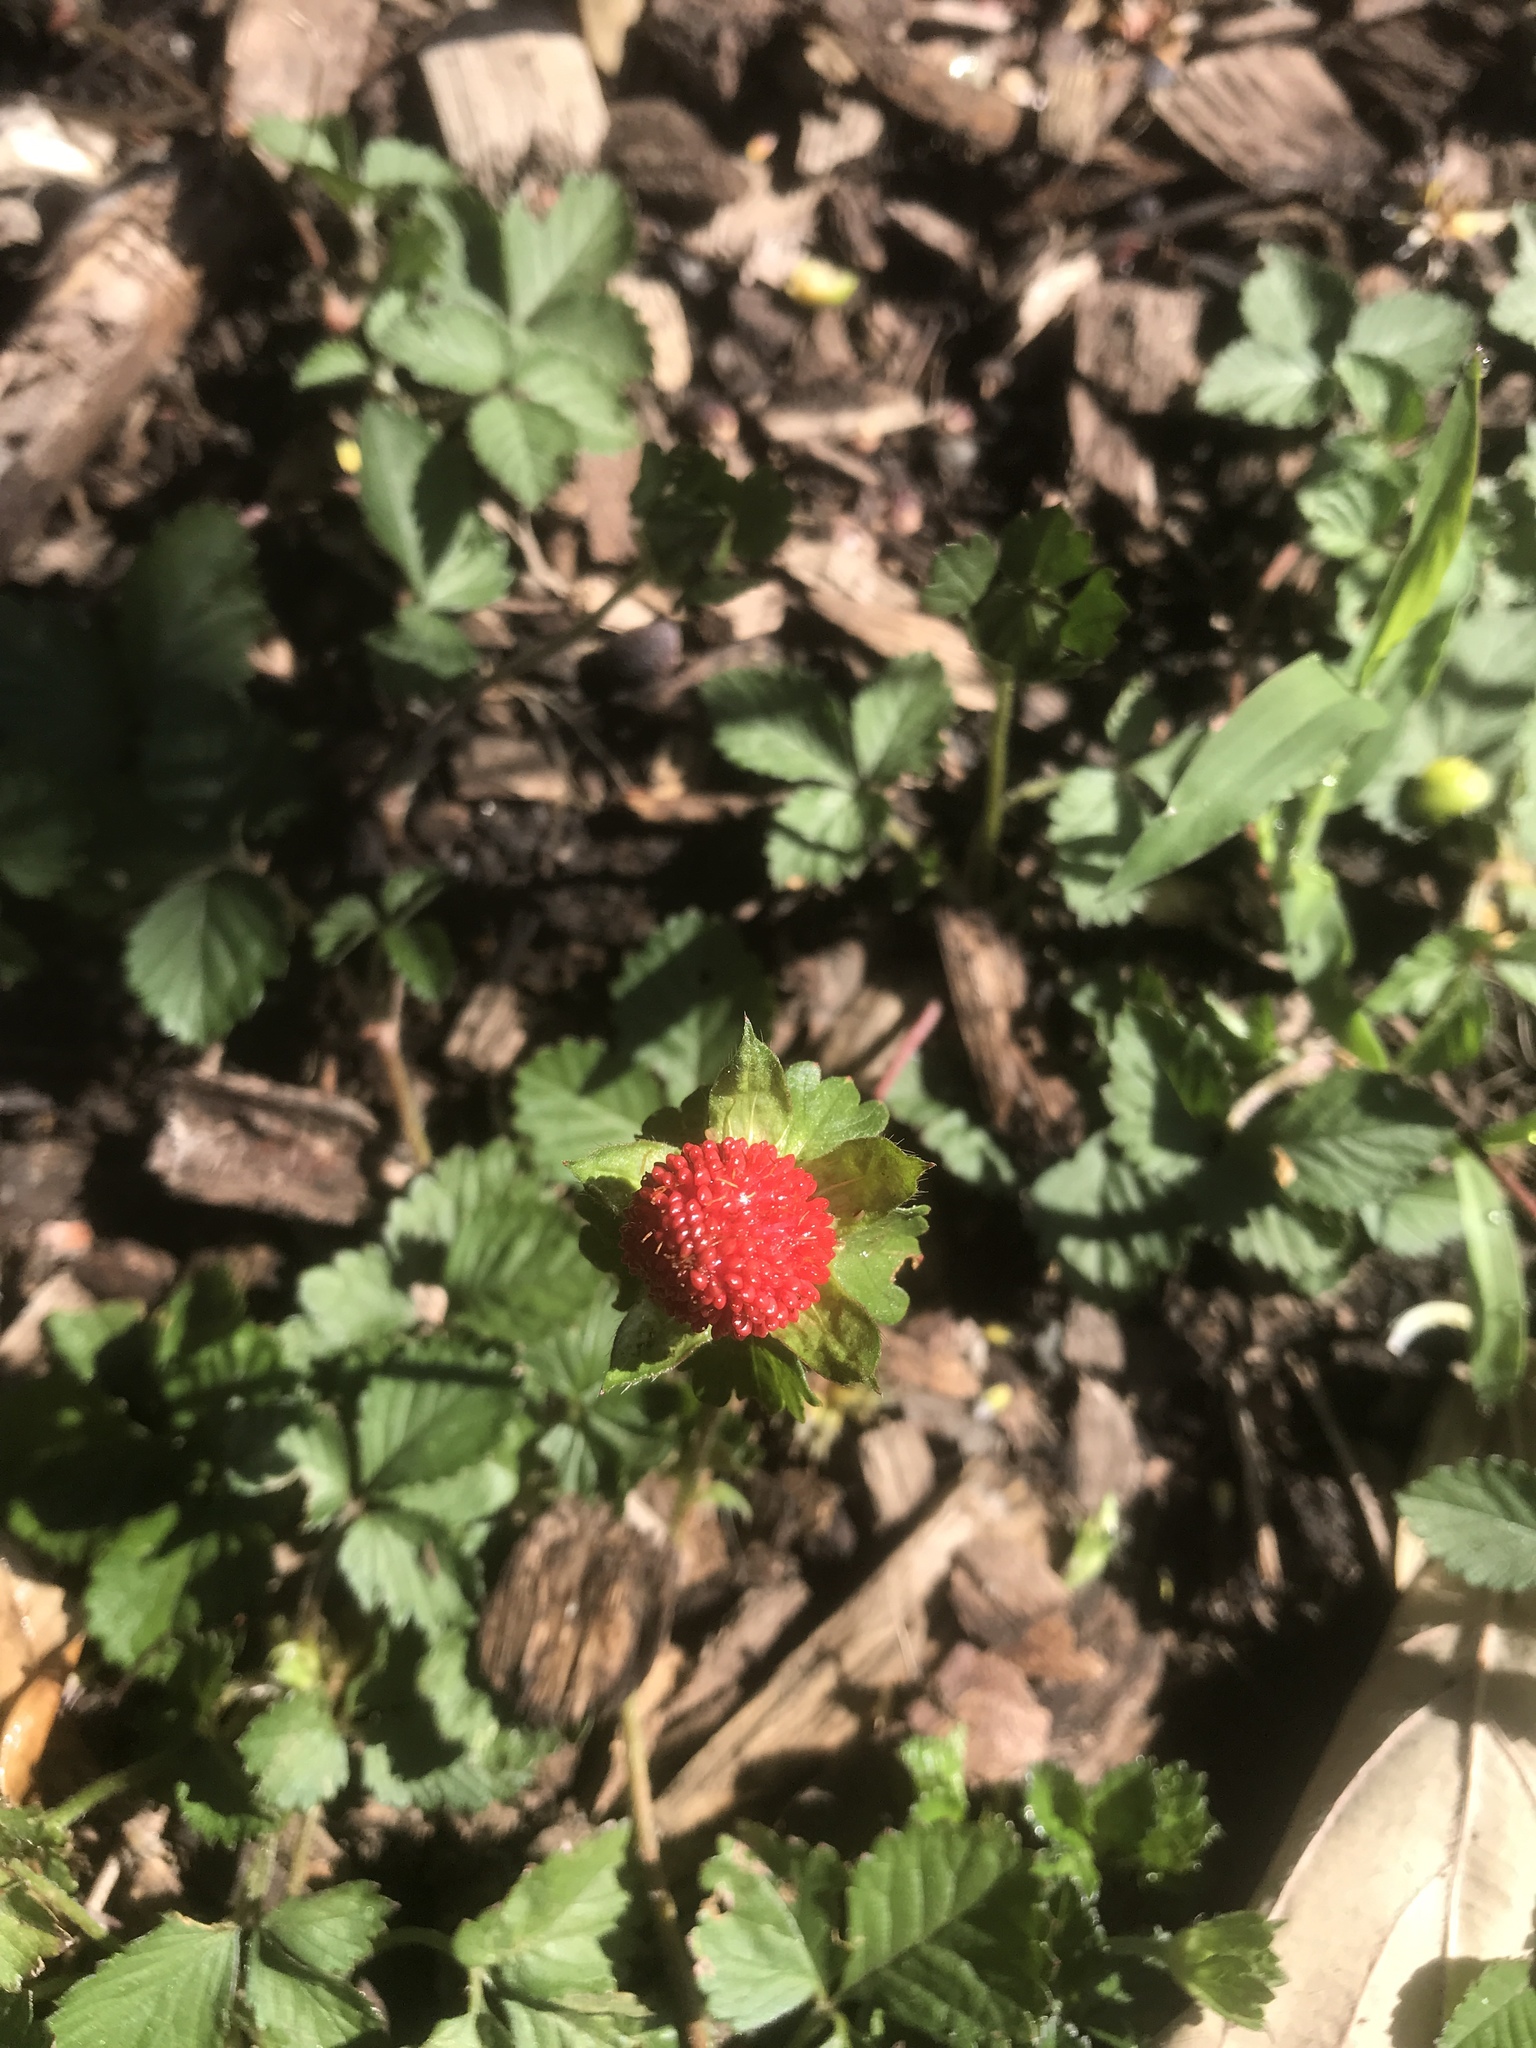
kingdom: Plantae
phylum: Tracheophyta
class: Magnoliopsida
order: Rosales
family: Rosaceae
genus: Potentilla
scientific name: Potentilla indica
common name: Yellow-flowered strawberry
